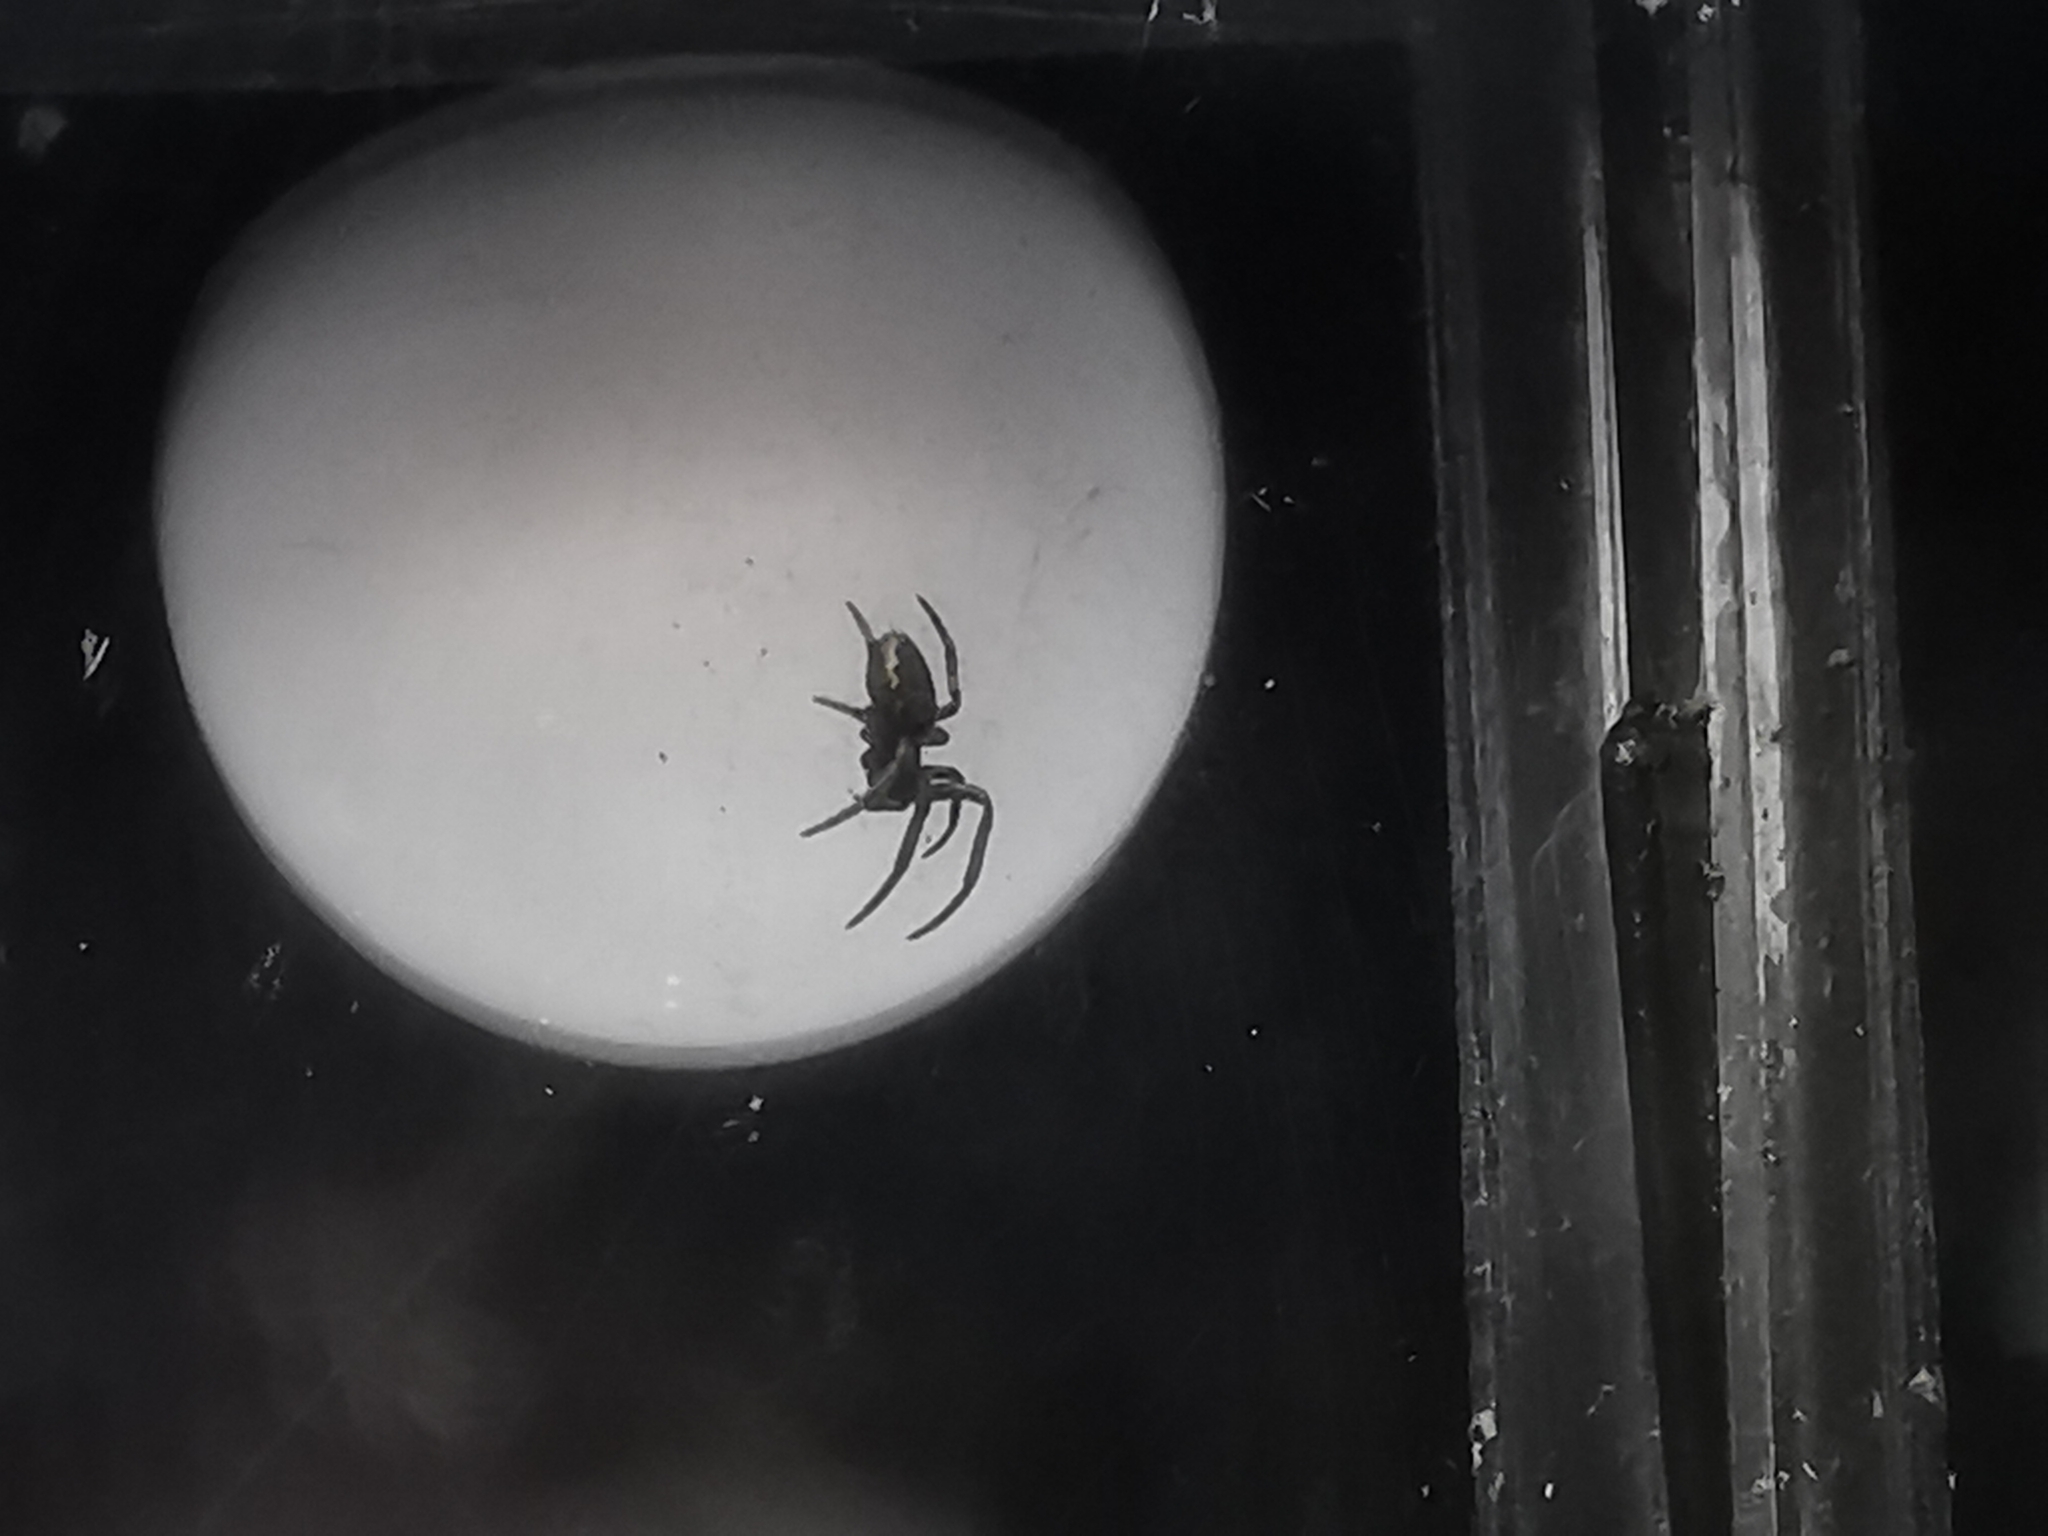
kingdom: Animalia
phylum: Arthropoda
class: Arachnida
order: Araneae
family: Araneidae
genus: Nuctenea
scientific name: Nuctenea
